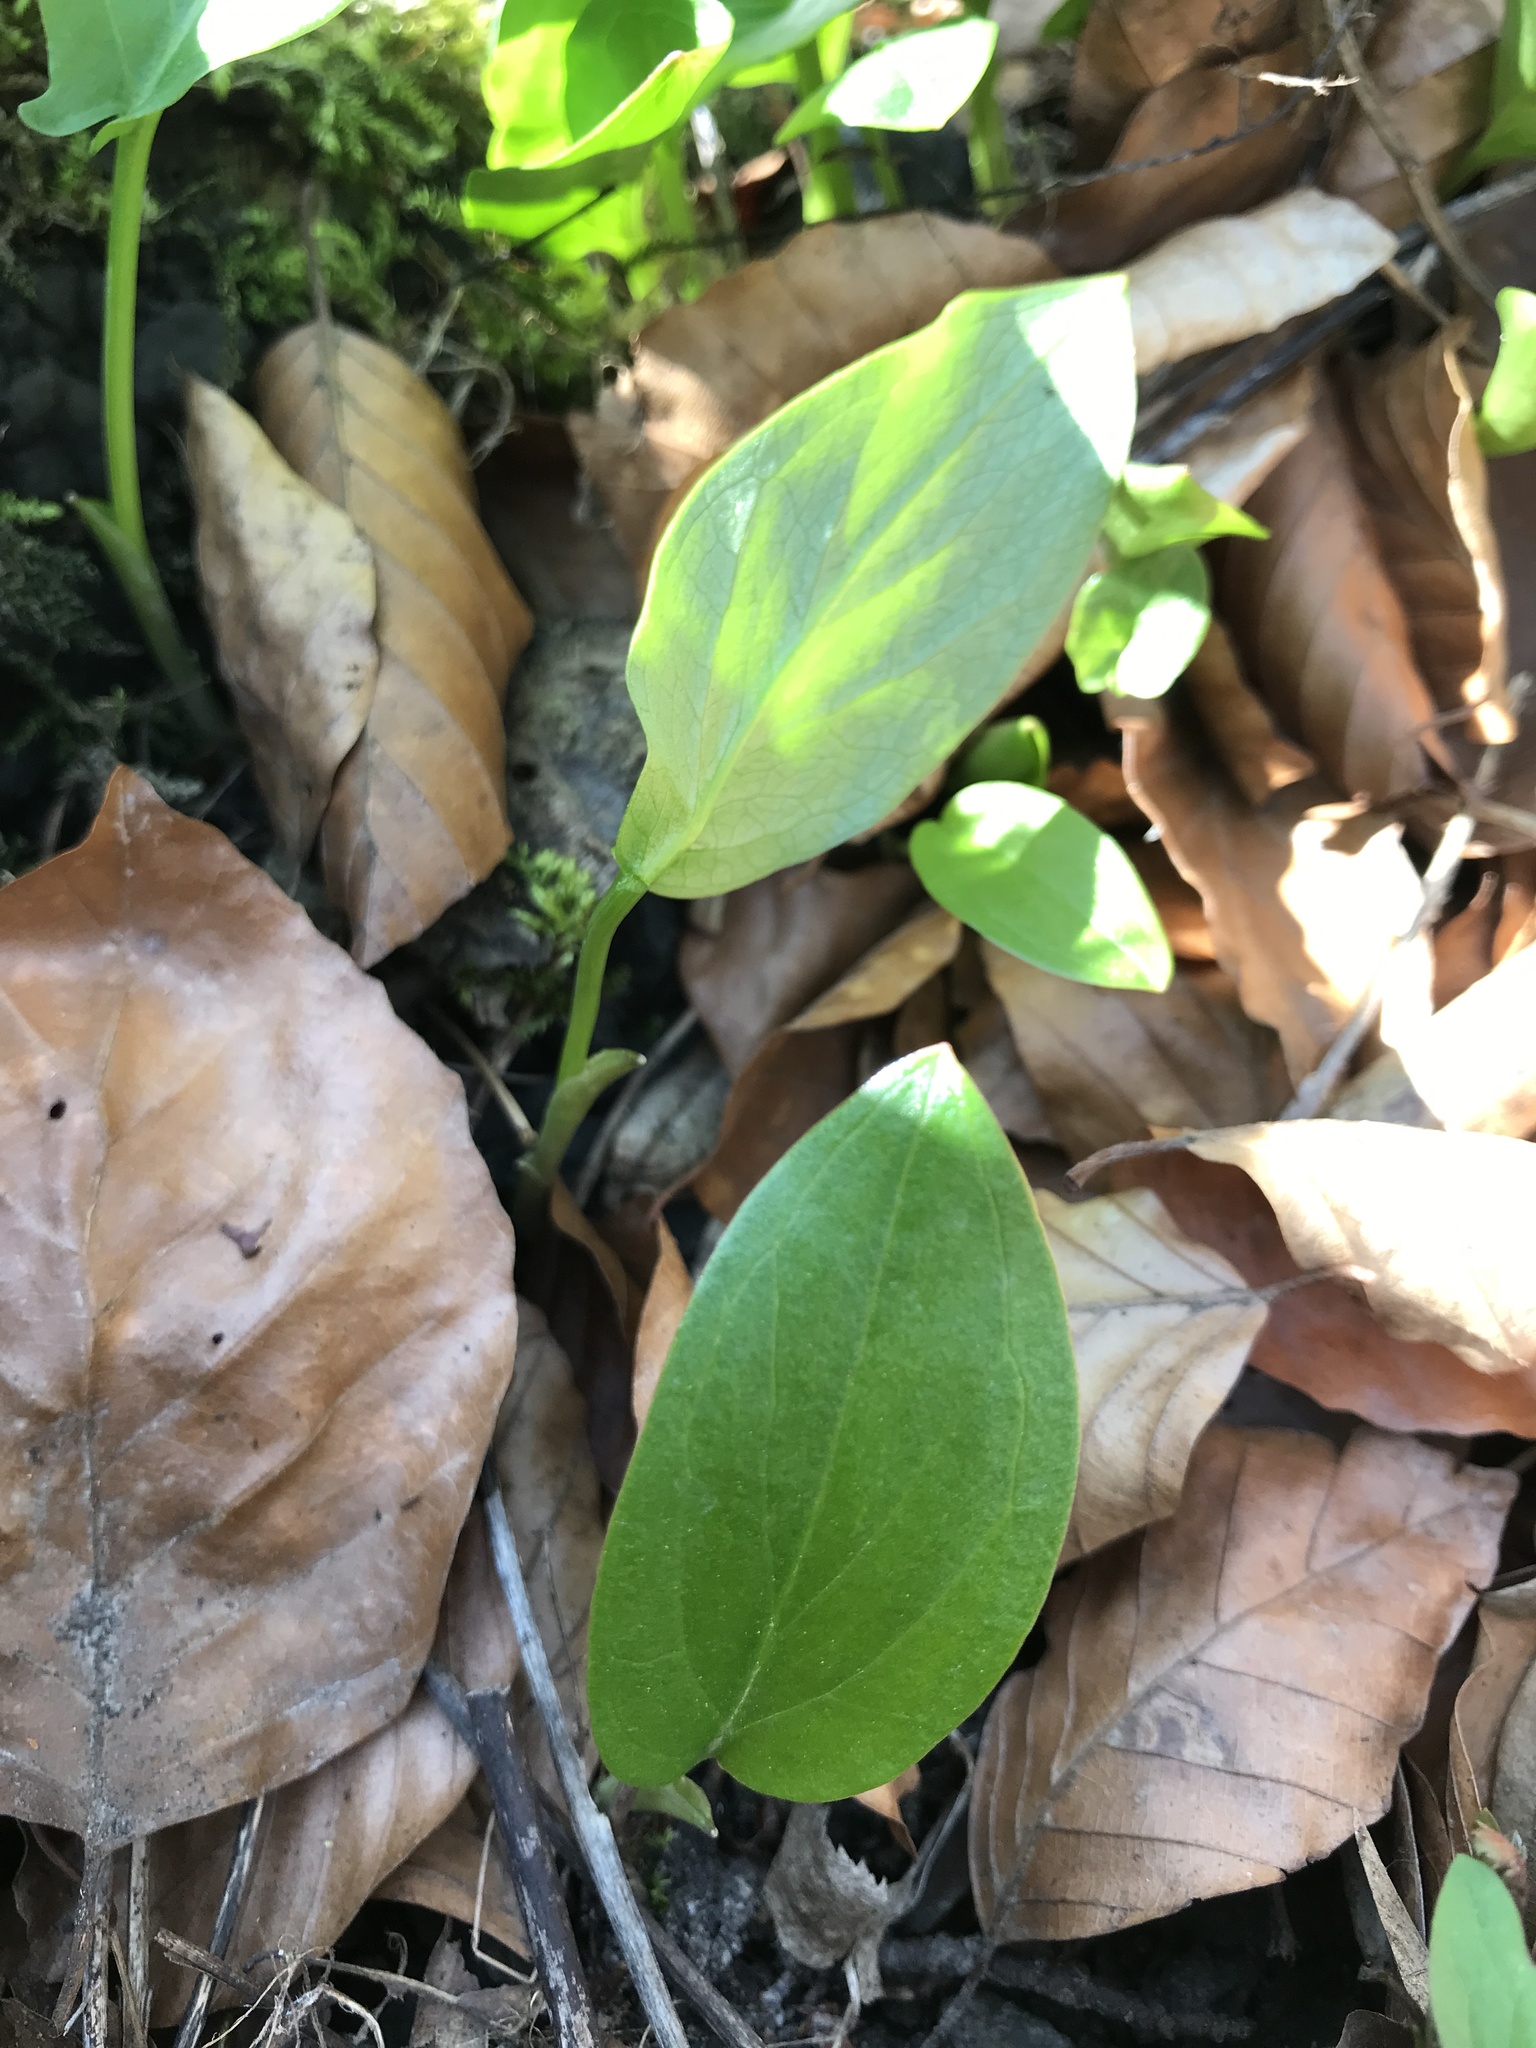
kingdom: Plantae
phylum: Tracheophyta
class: Liliopsida
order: Alismatales
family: Araceae
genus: Arum
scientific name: Arum maculatum
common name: Lords-and-ladies
